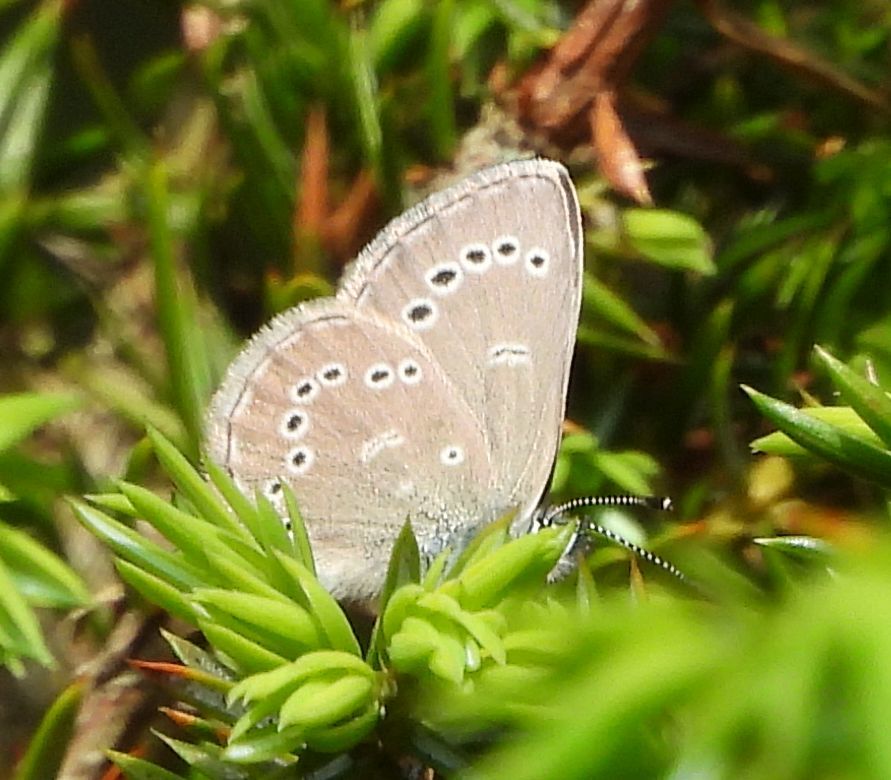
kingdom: Animalia
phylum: Arthropoda
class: Insecta
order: Lepidoptera
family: Lycaenidae
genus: Glaucopsyche
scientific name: Glaucopsyche lygdamus
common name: Silvery blue
